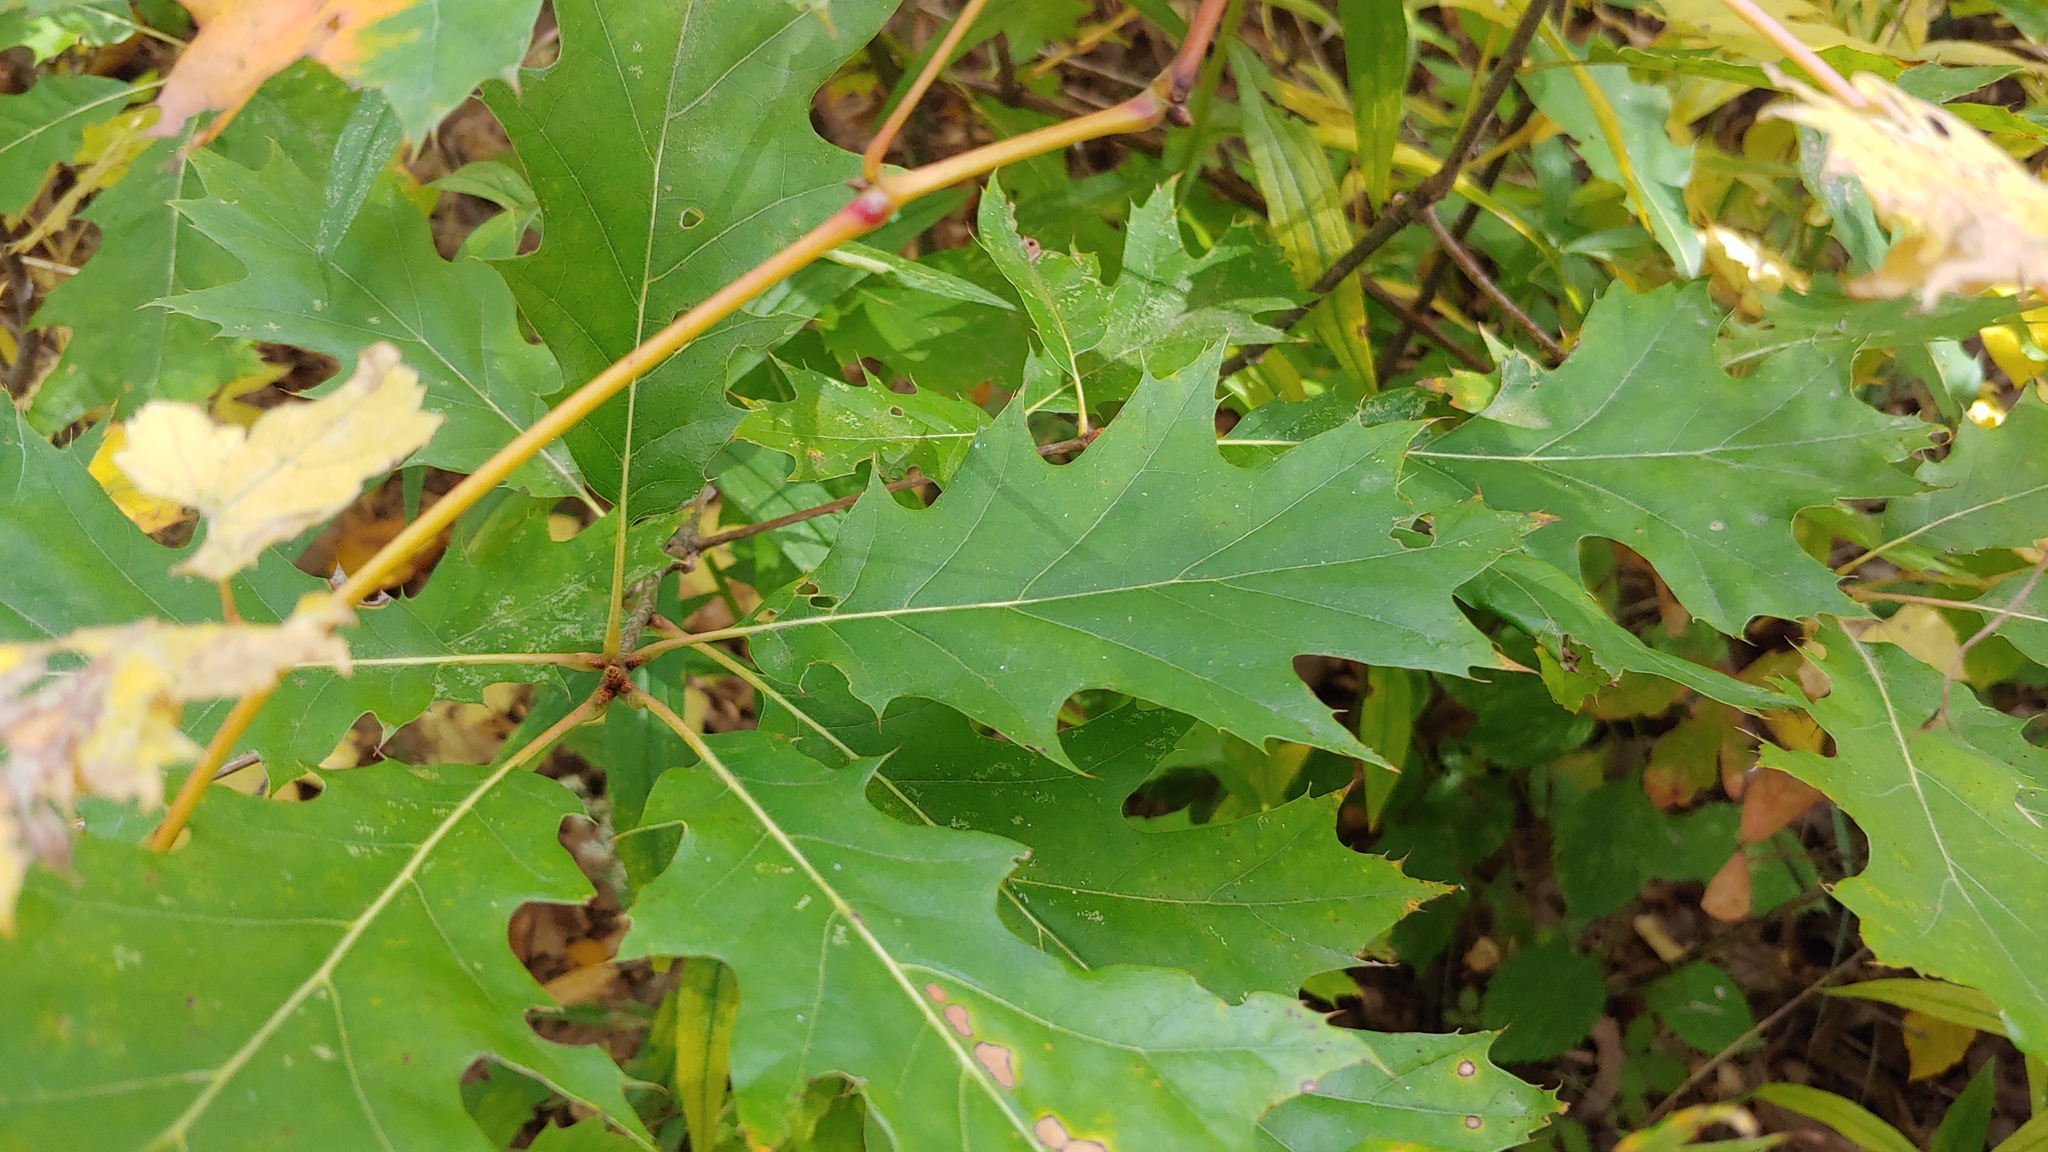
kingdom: Plantae
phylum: Tracheophyta
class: Magnoliopsida
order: Fagales
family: Fagaceae
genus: Quercus
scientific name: Quercus rubra
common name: Red oak
